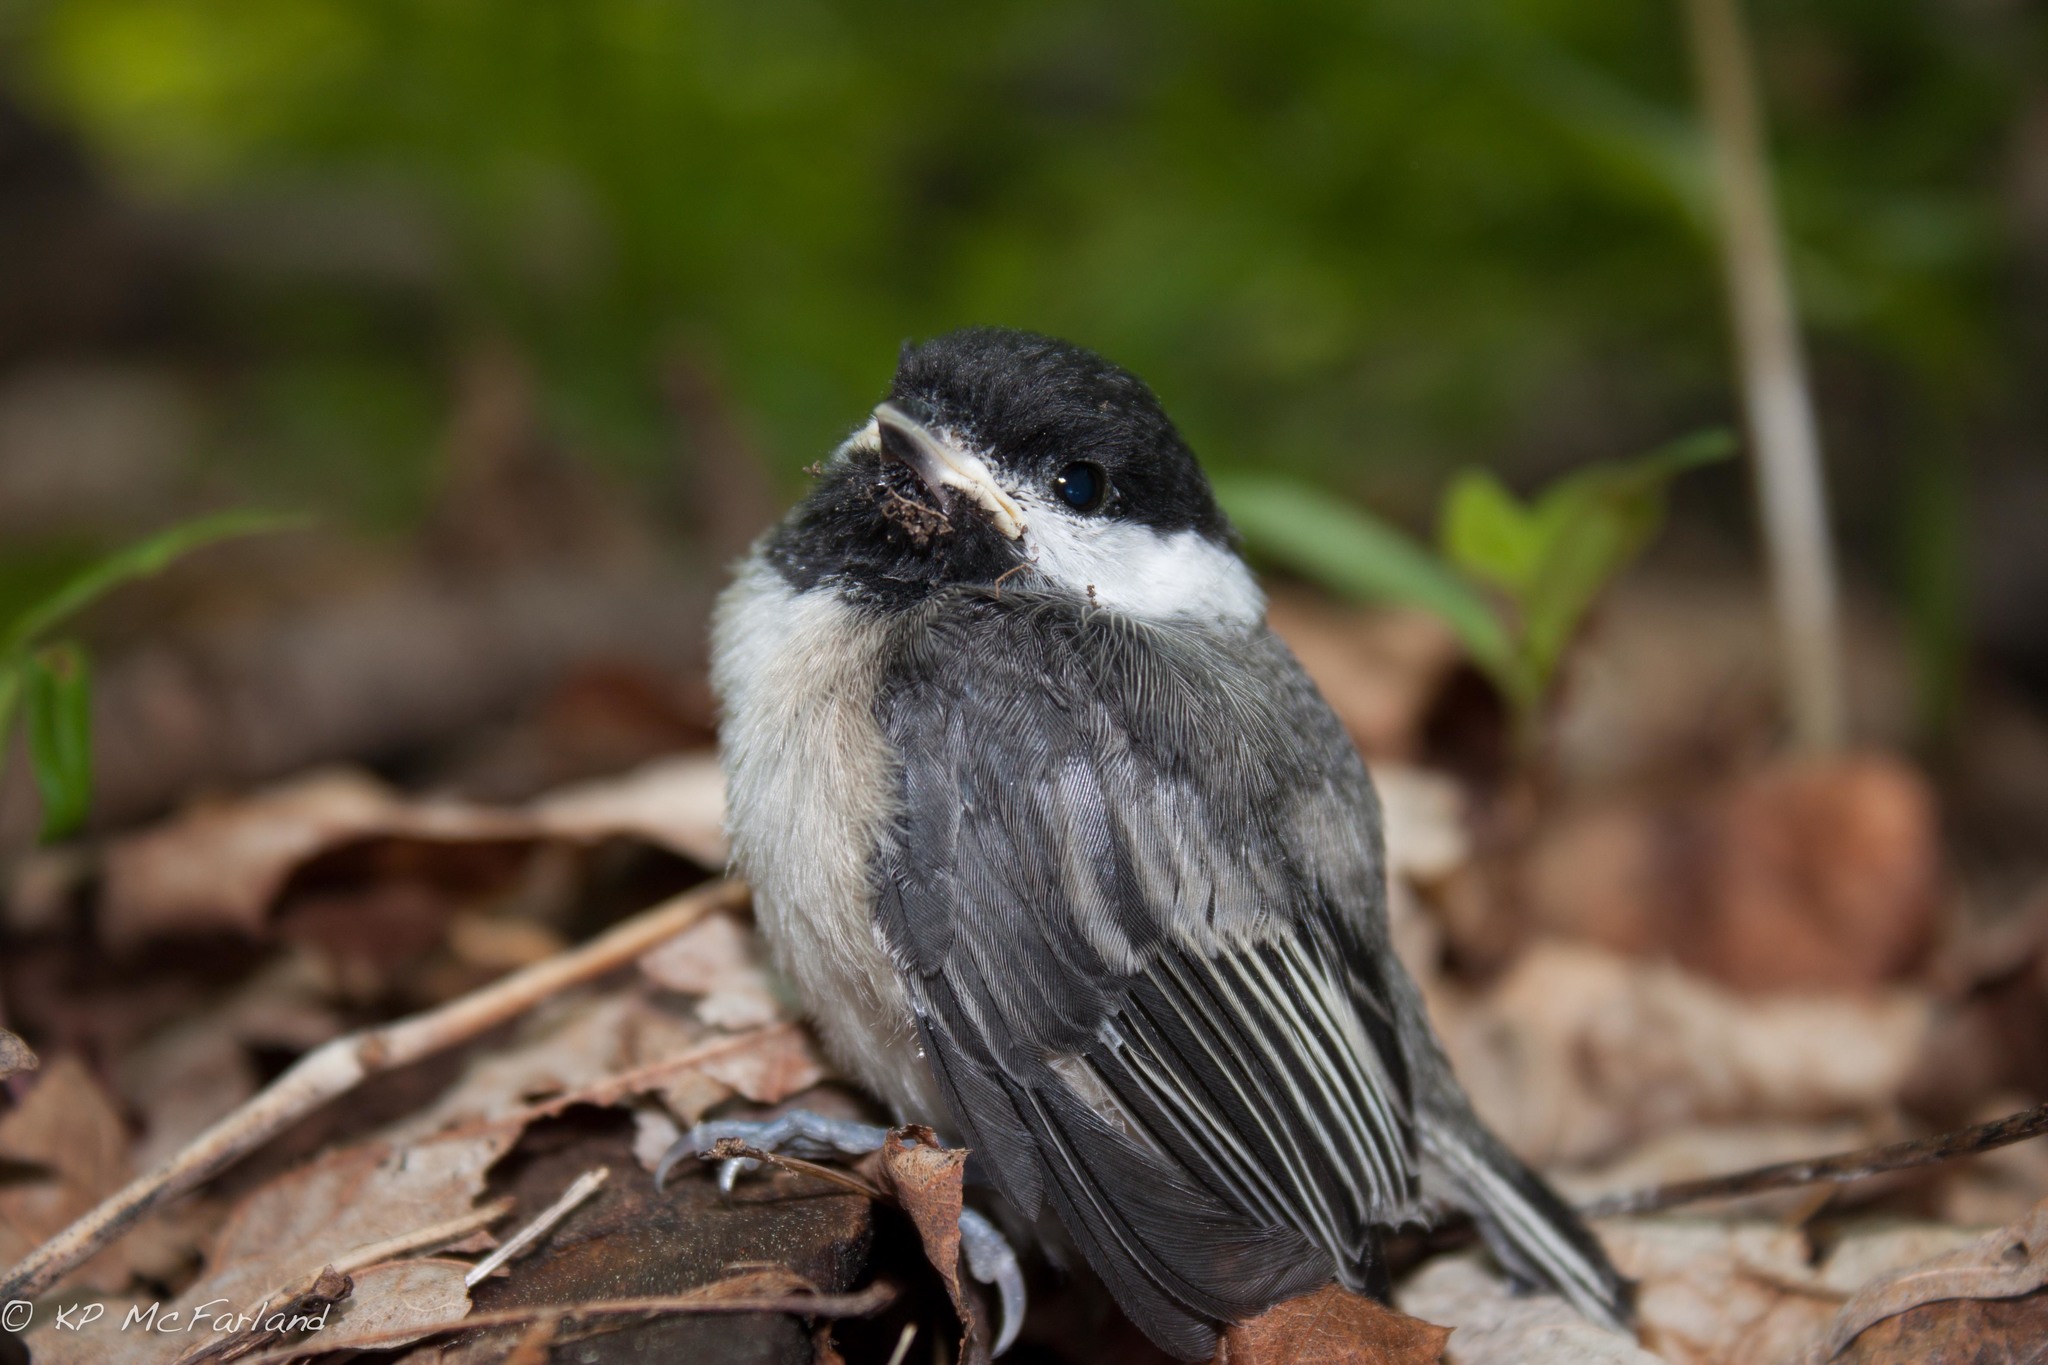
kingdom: Animalia
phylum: Chordata
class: Aves
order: Passeriformes
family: Paridae
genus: Poecile
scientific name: Poecile atricapillus
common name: Black-capped chickadee
